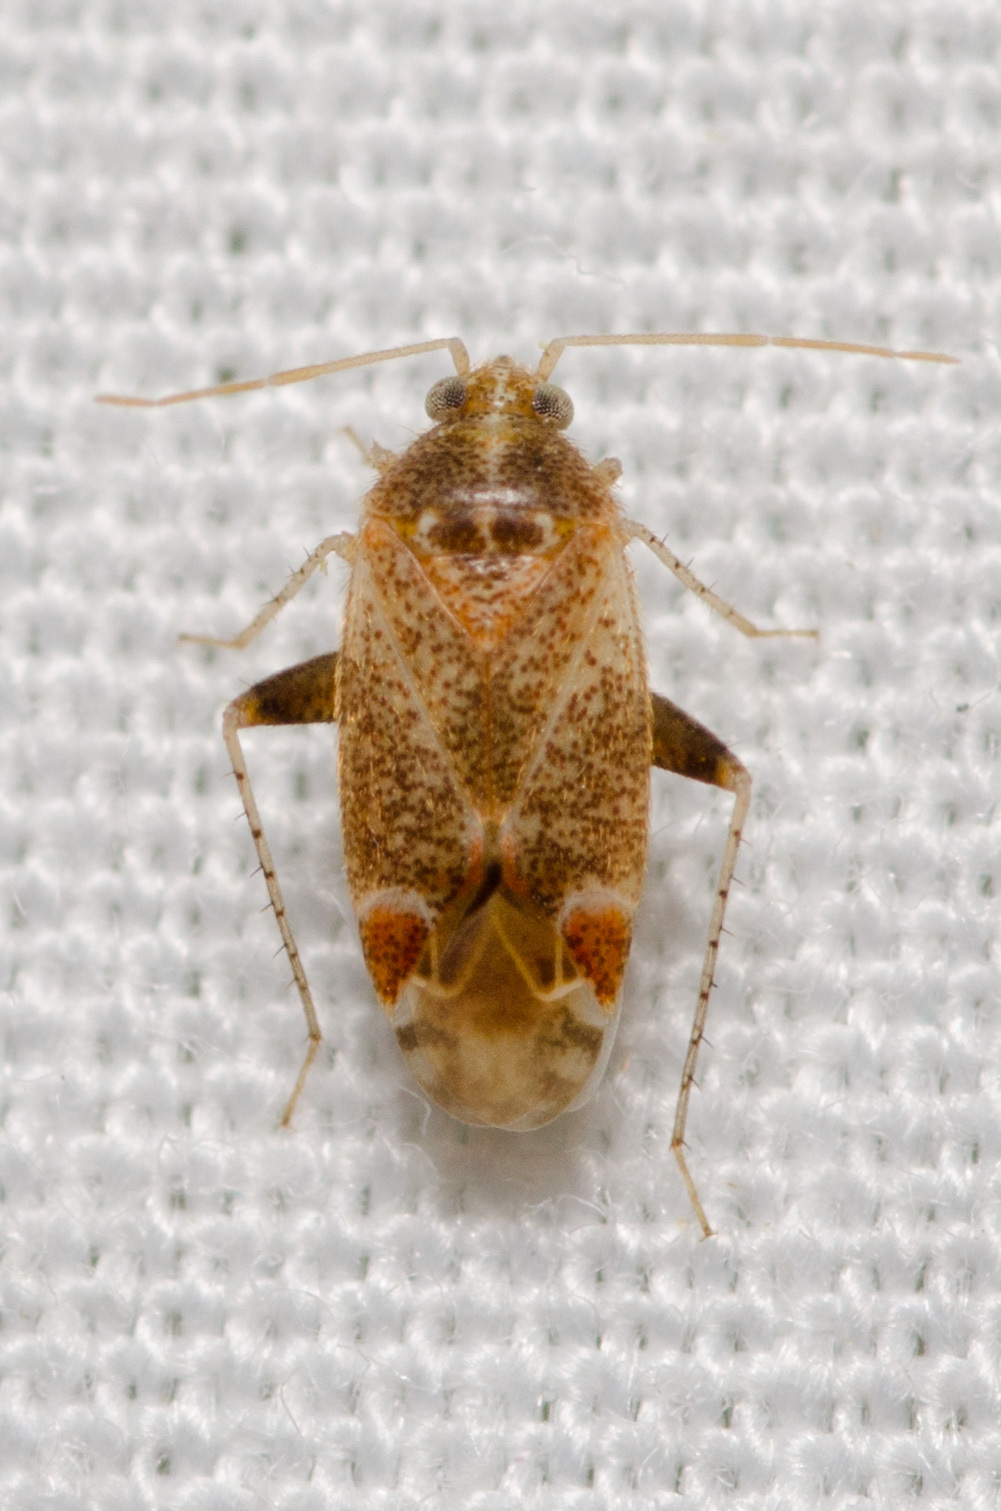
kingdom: Animalia
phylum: Arthropoda
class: Insecta
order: Hemiptera
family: Miridae
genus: Hamatophylus
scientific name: Hamatophylus guttulosus
